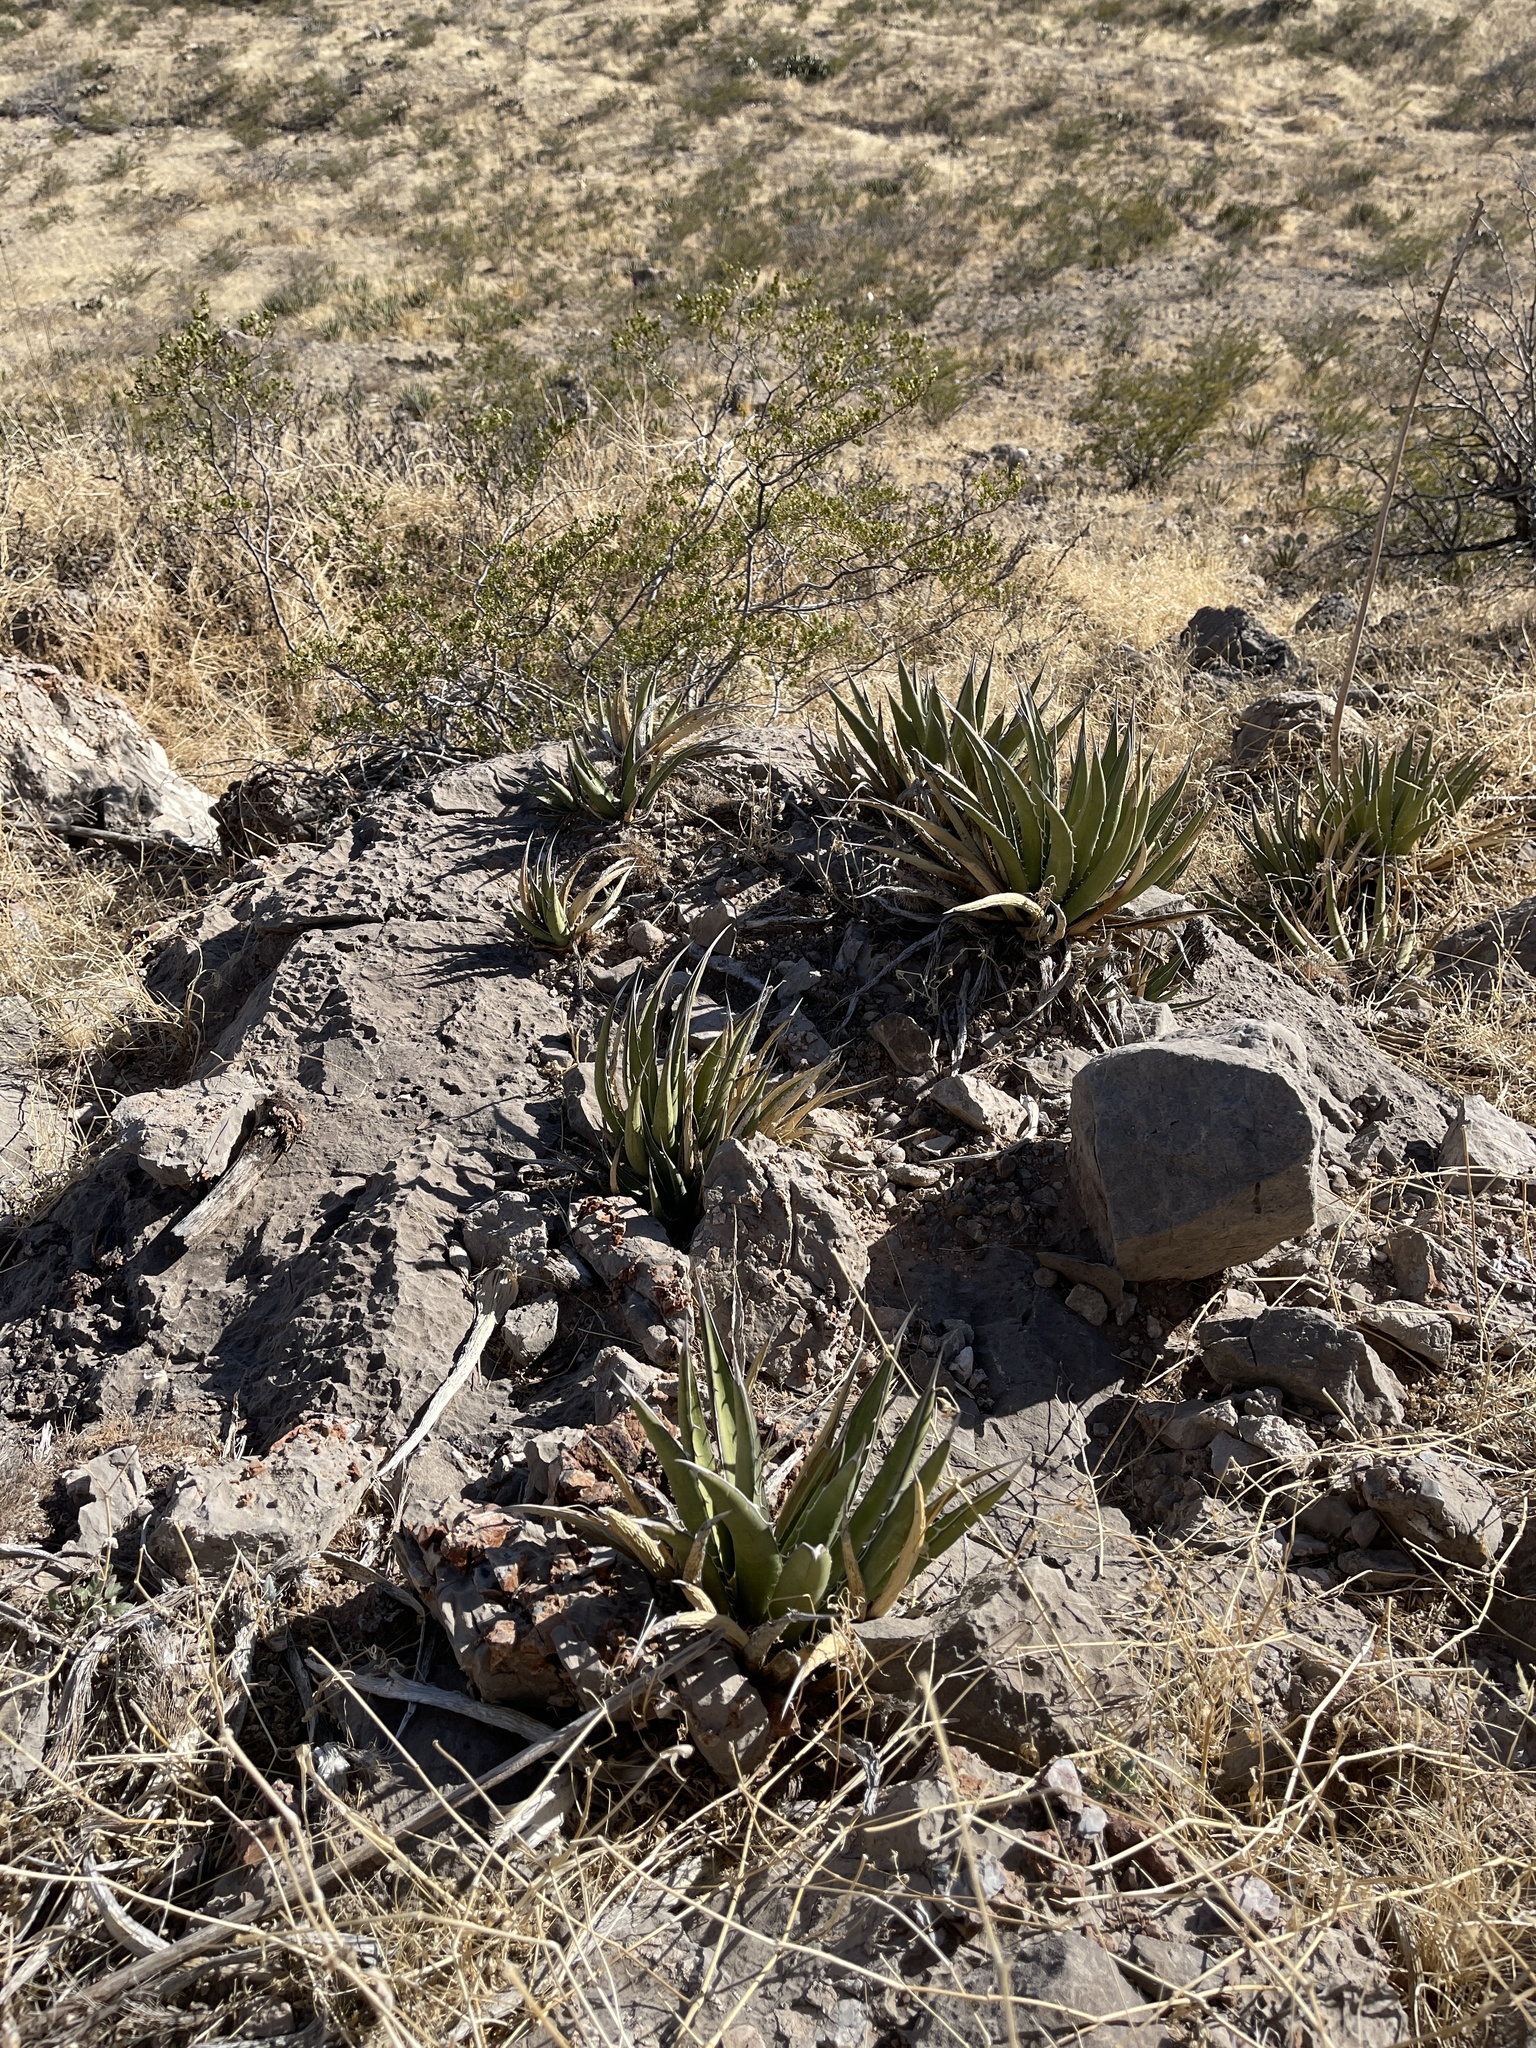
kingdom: Plantae
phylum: Tracheophyta
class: Liliopsida
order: Asparagales
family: Asparagaceae
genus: Agave
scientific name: Agave lechuguilla
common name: Lecheguilla agave
